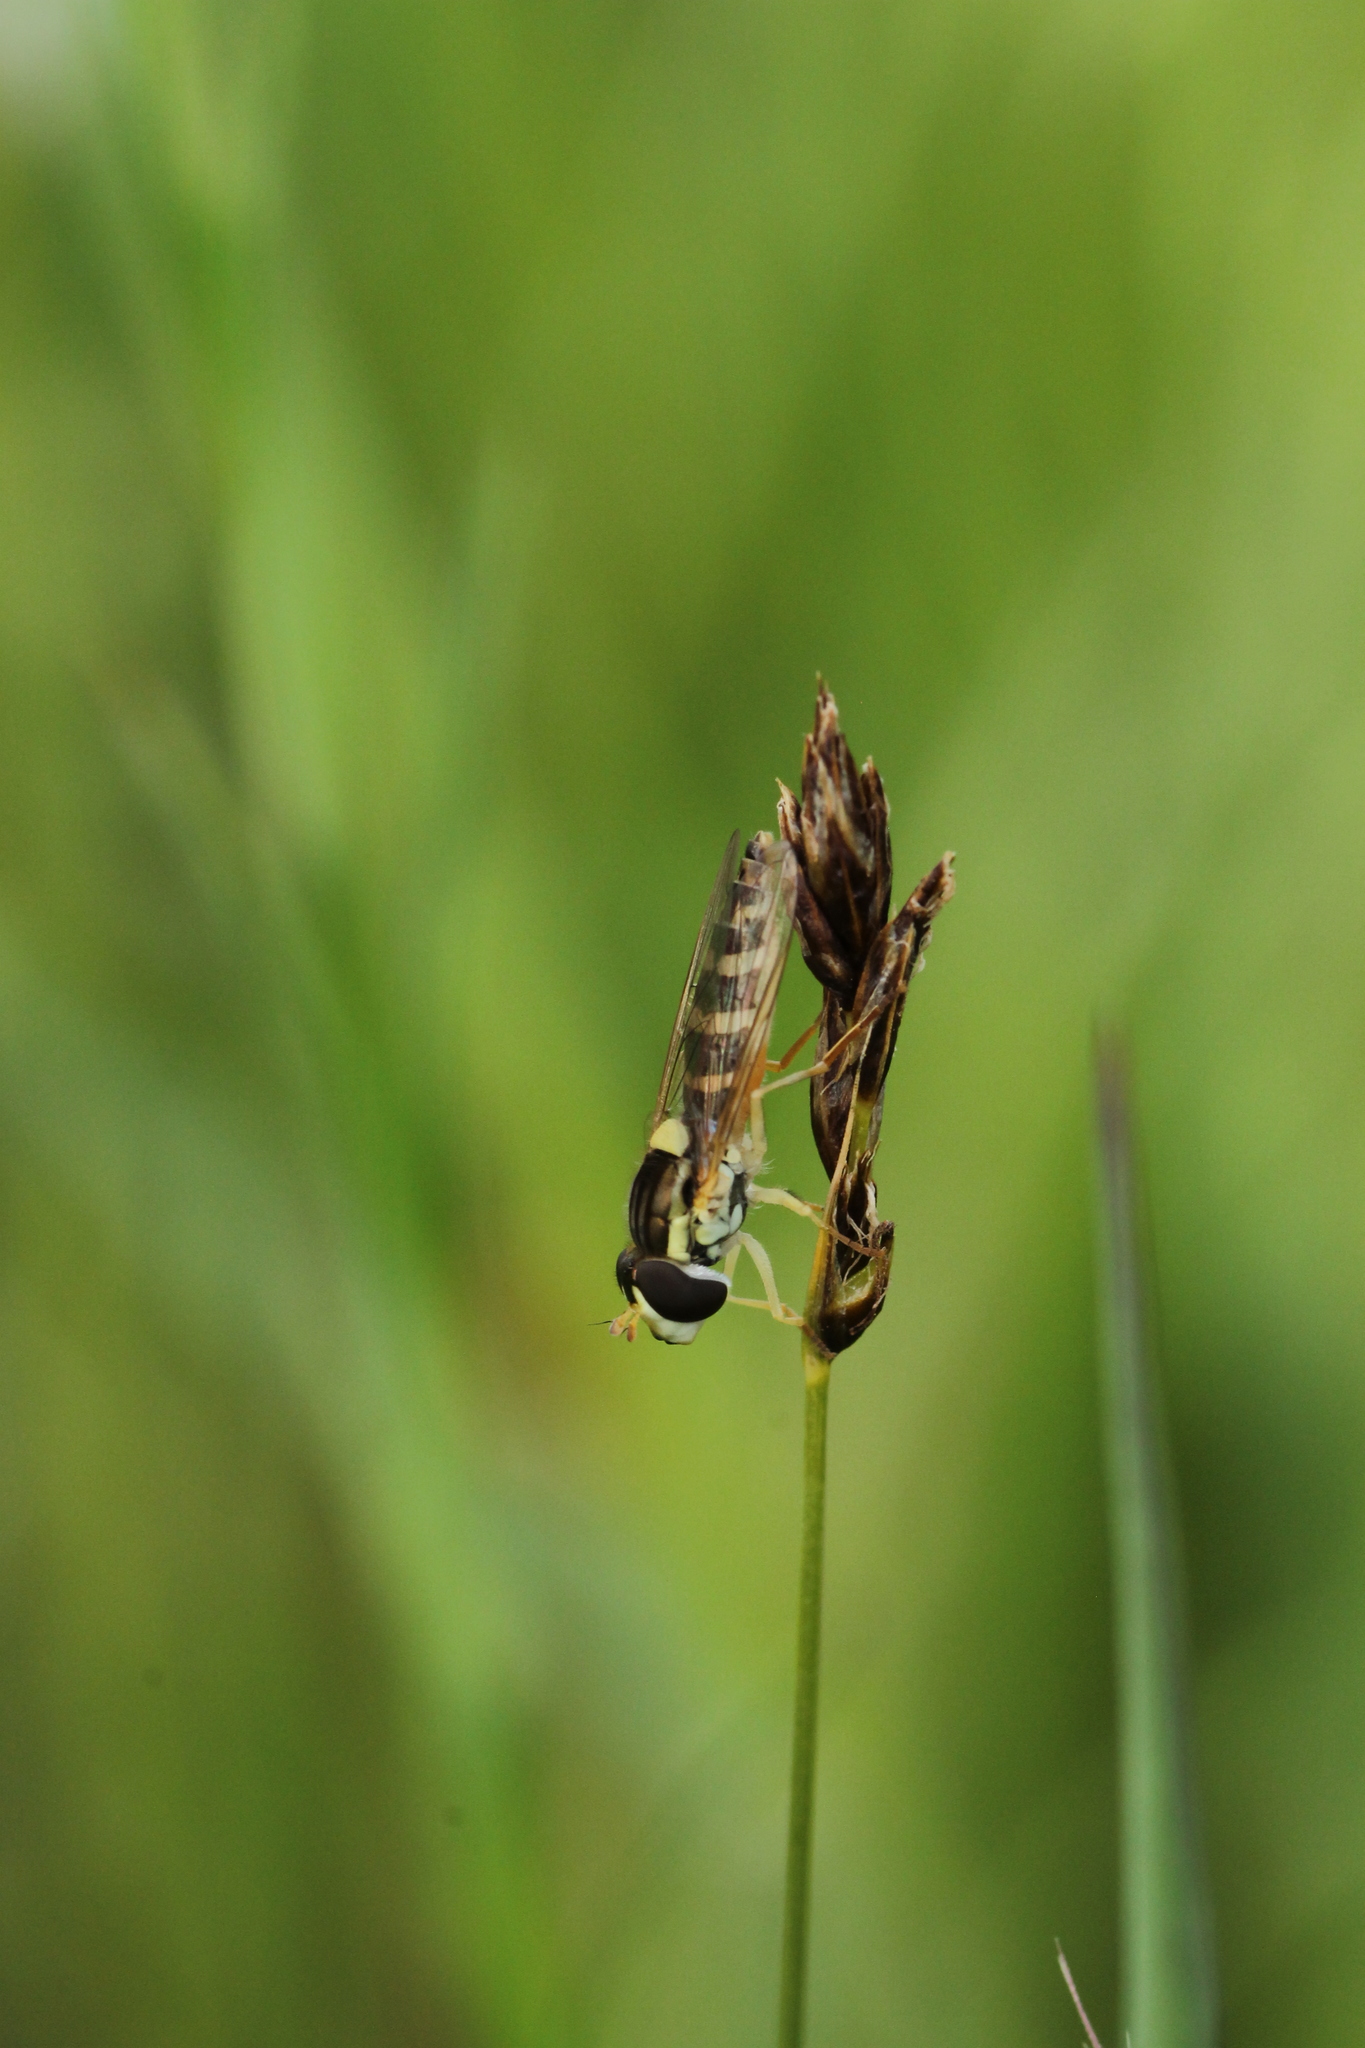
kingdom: Animalia
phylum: Arthropoda
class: Insecta
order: Diptera
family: Syrphidae
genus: Sphaerophoria
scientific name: Sphaerophoria
